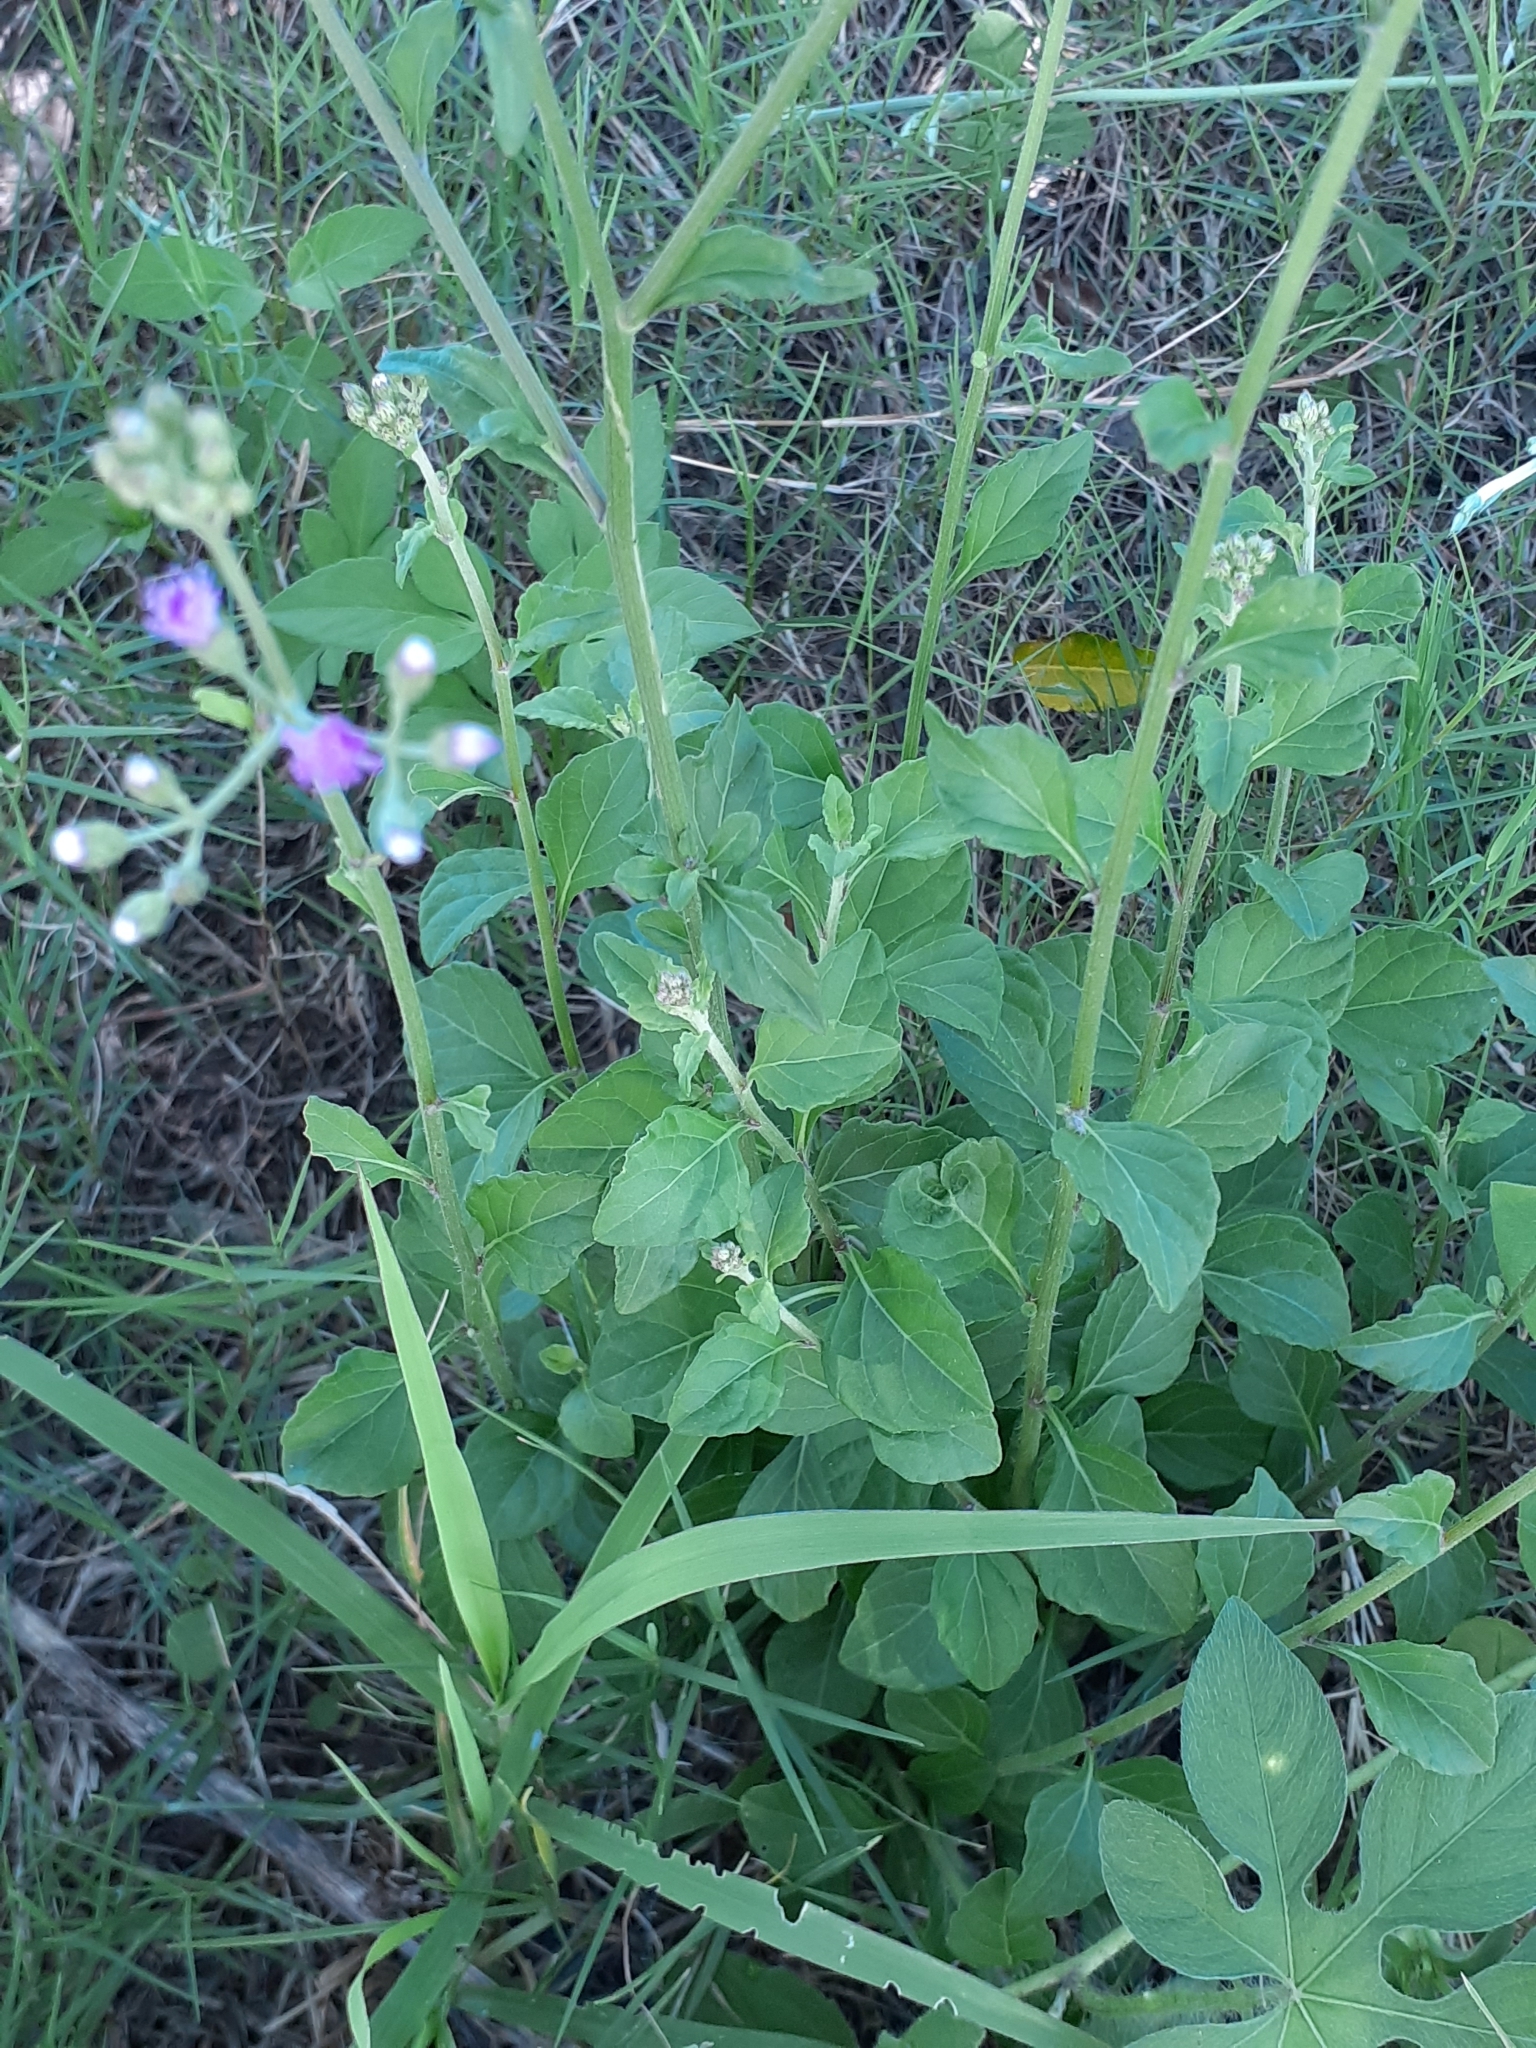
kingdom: Plantae
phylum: Tracheophyta
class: Magnoliopsida
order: Asterales
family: Asteraceae
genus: Cyanthillium
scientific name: Cyanthillium cinereum
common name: Little ironweed
